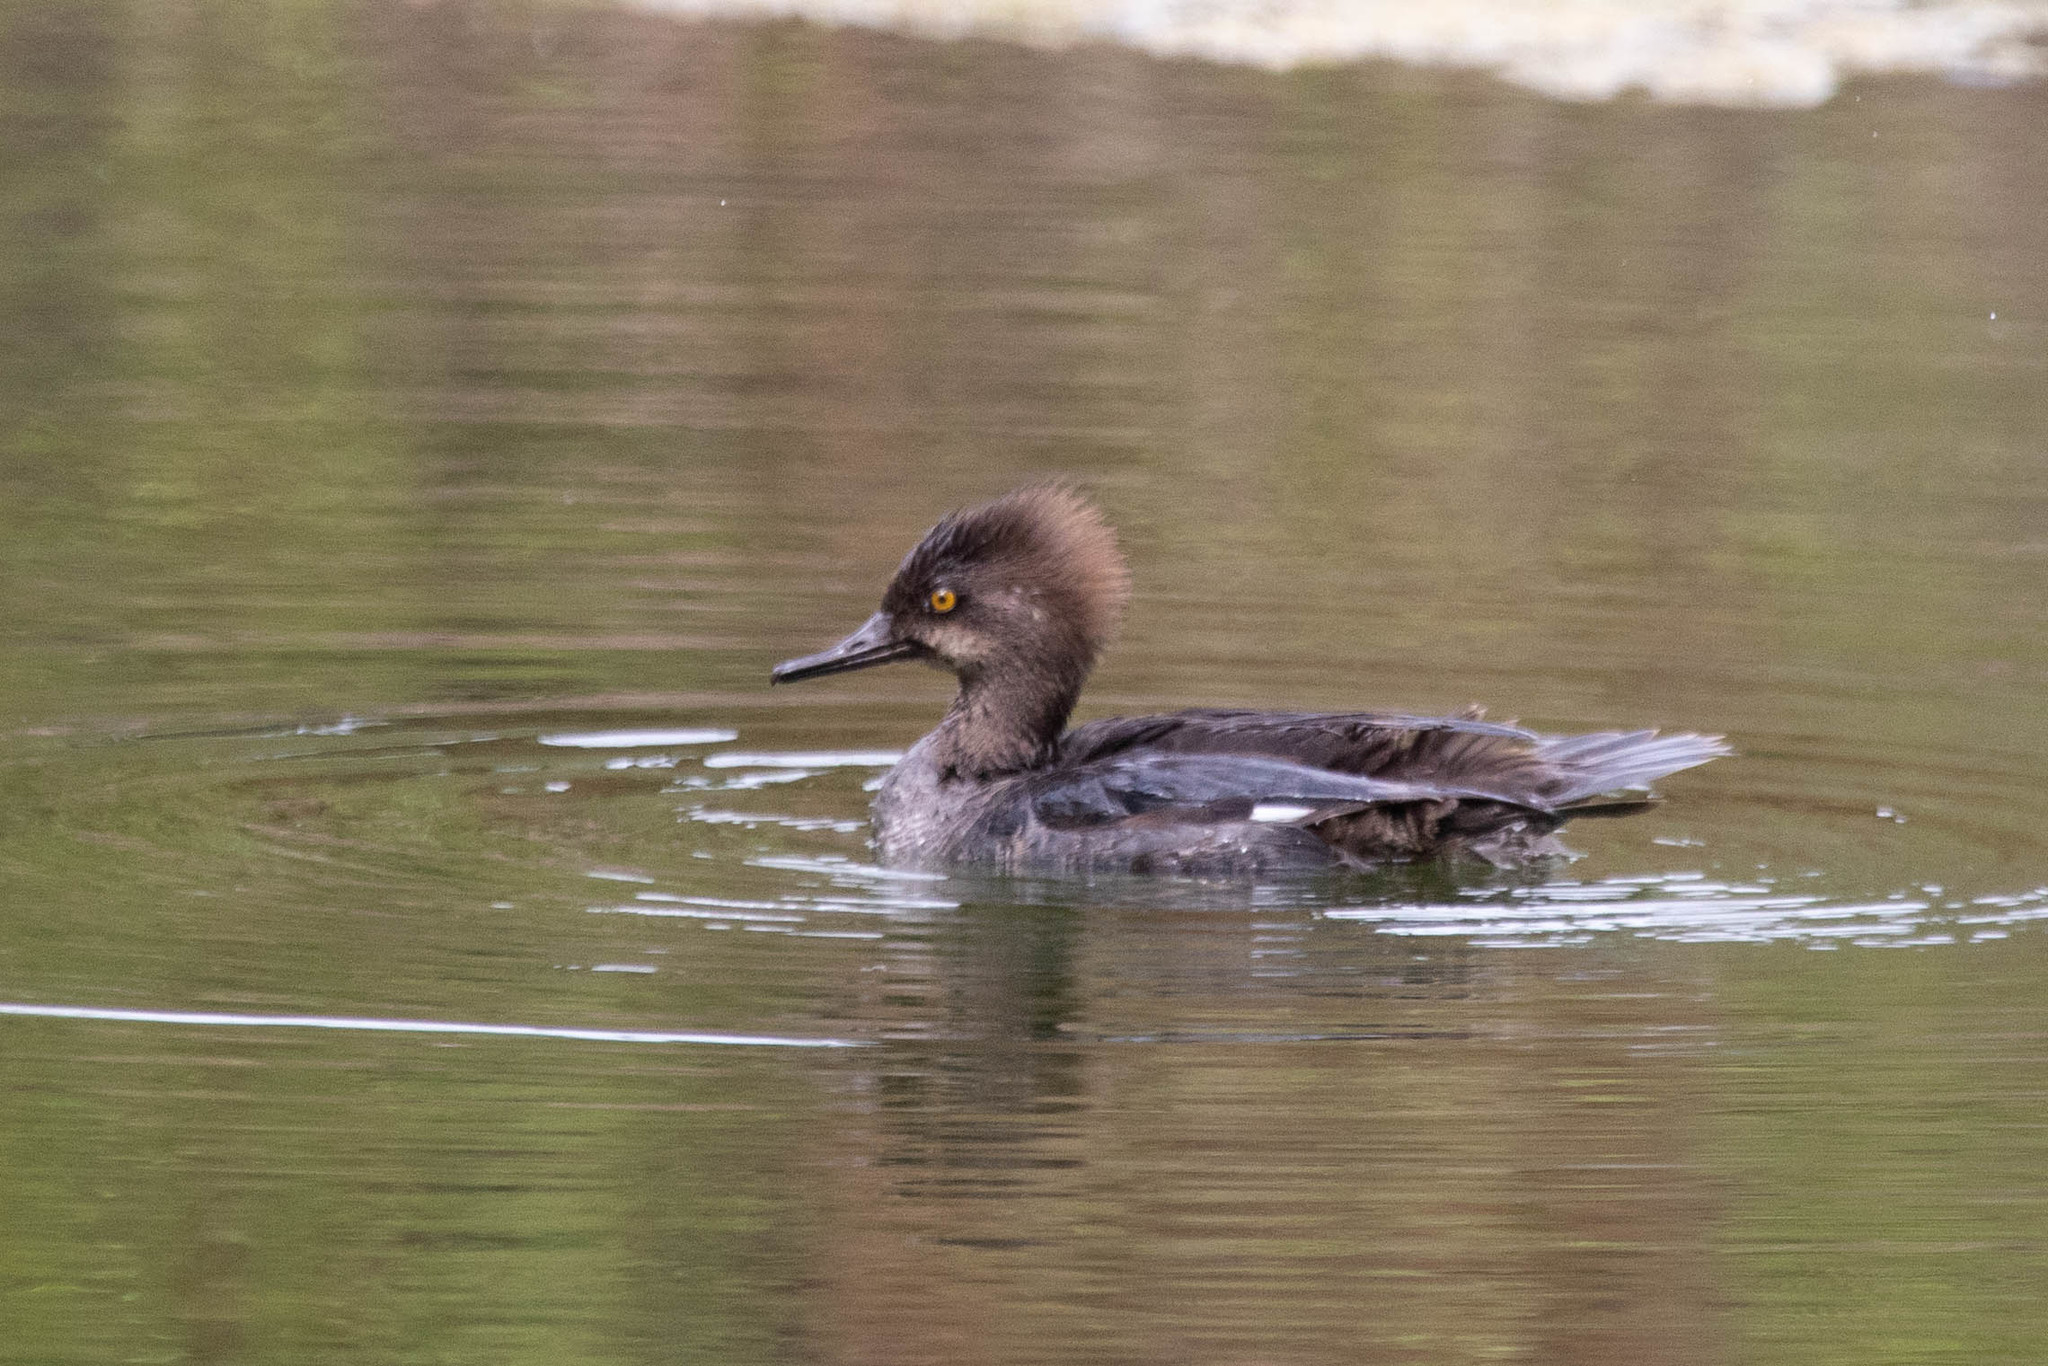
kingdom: Animalia
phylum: Chordata
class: Aves
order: Anseriformes
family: Anatidae
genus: Lophodytes
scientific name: Lophodytes cucullatus
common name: Hooded merganser
